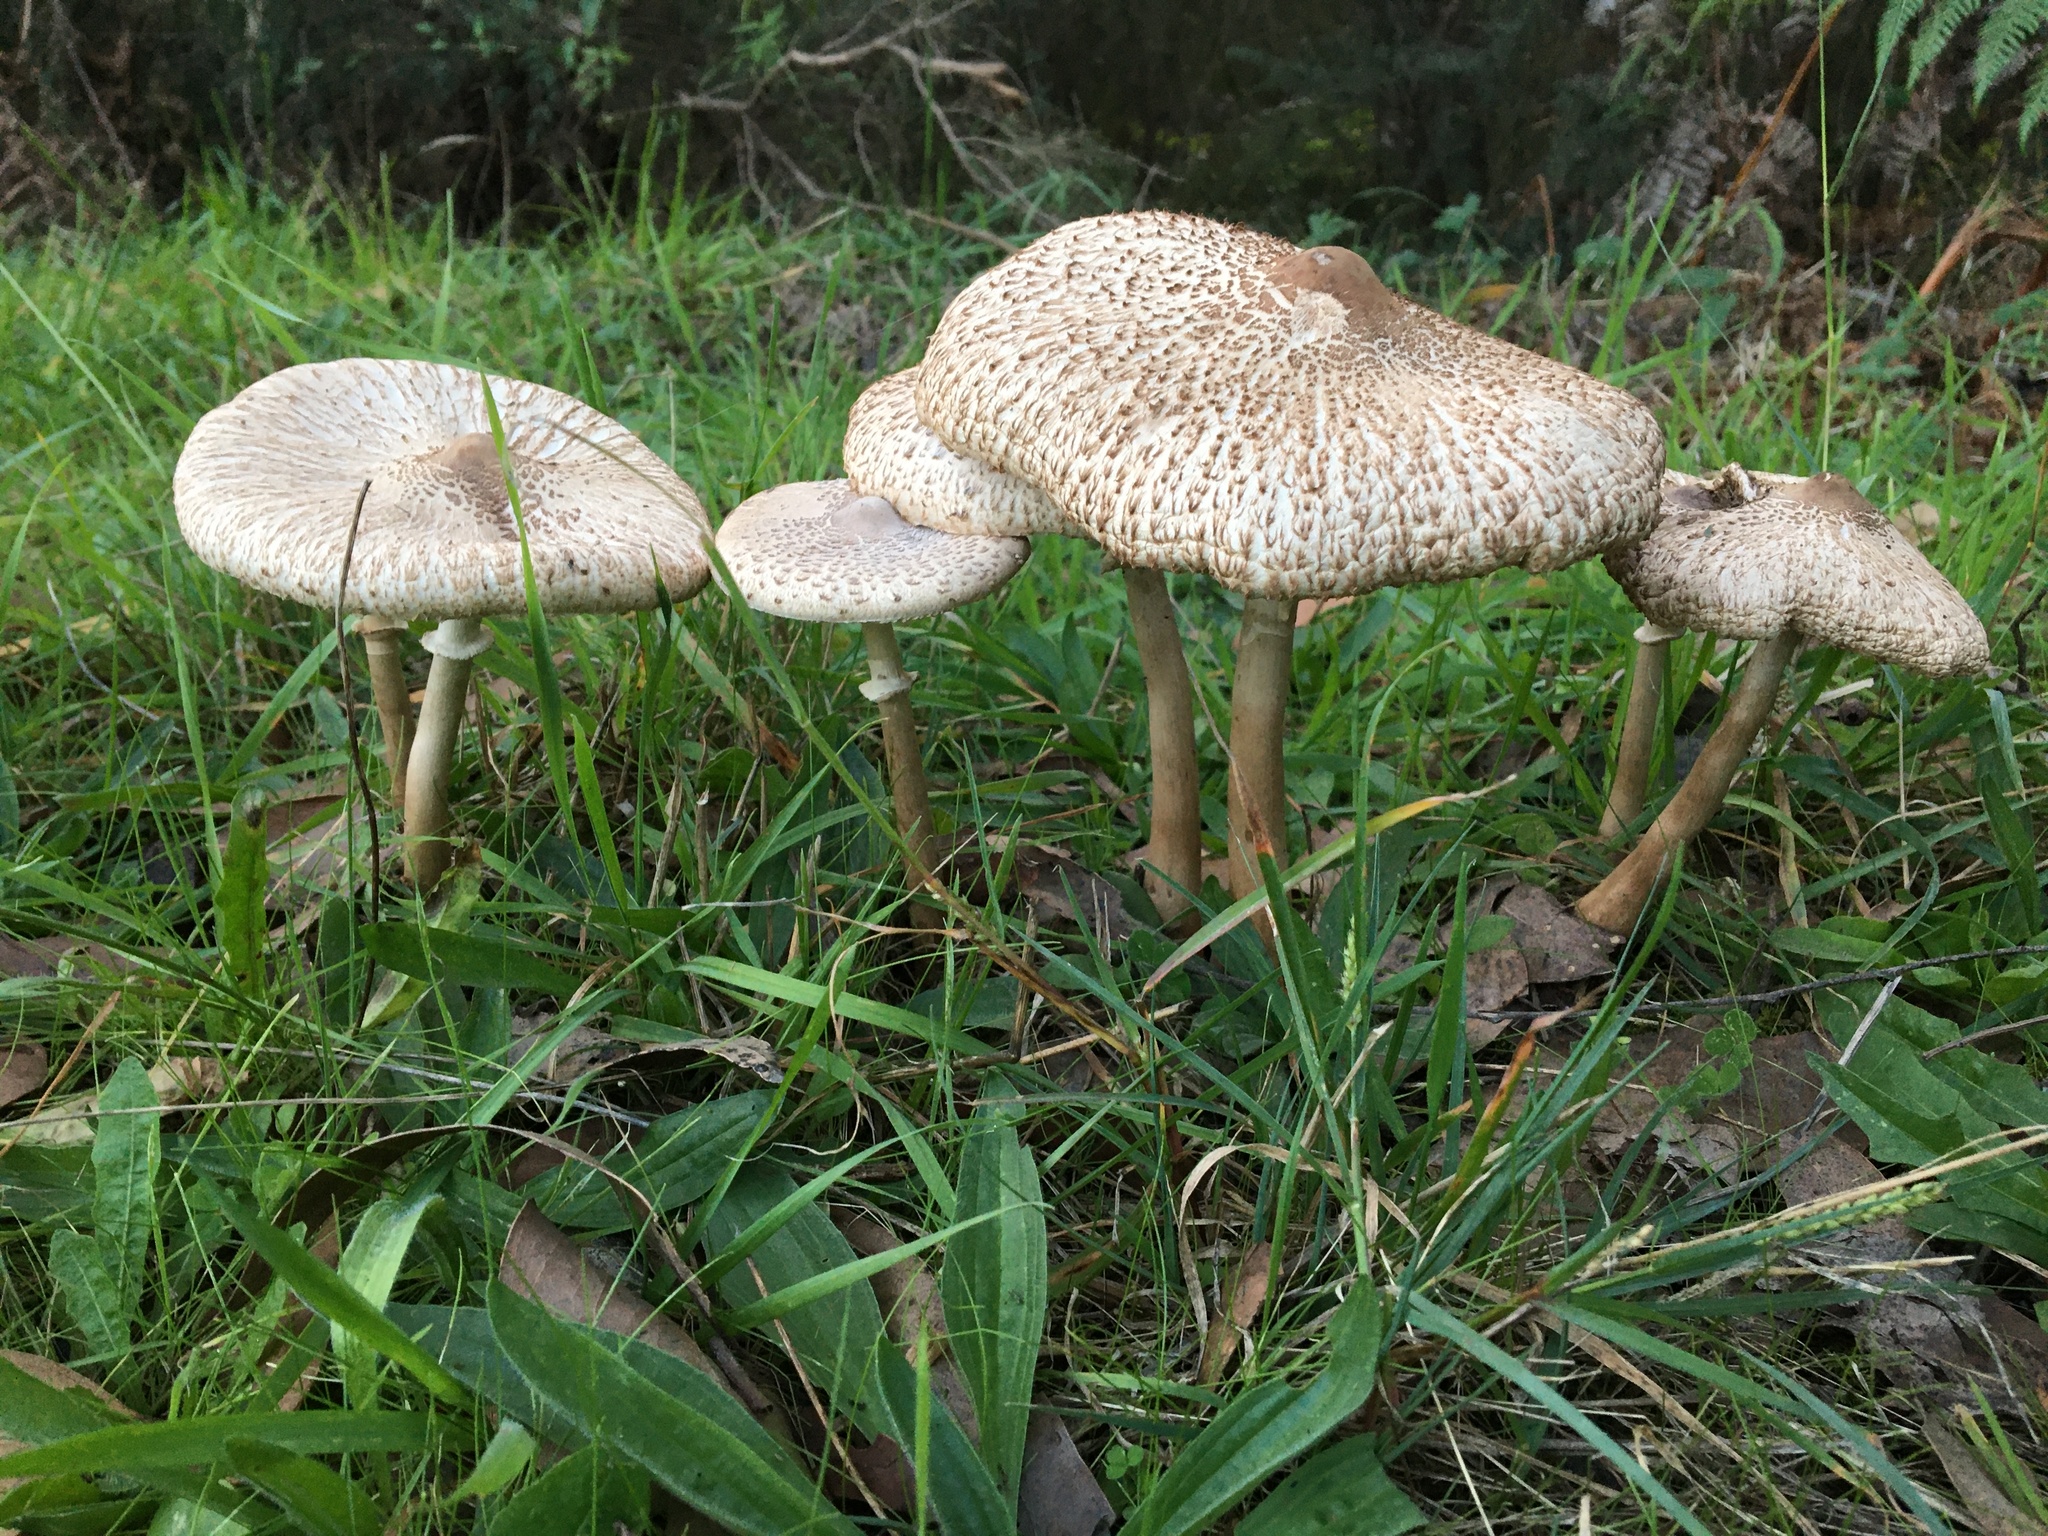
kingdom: Fungi
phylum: Basidiomycota
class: Agaricomycetes
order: Agaricales
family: Agaricaceae
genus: Macrolepiota
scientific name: Macrolepiota clelandii
